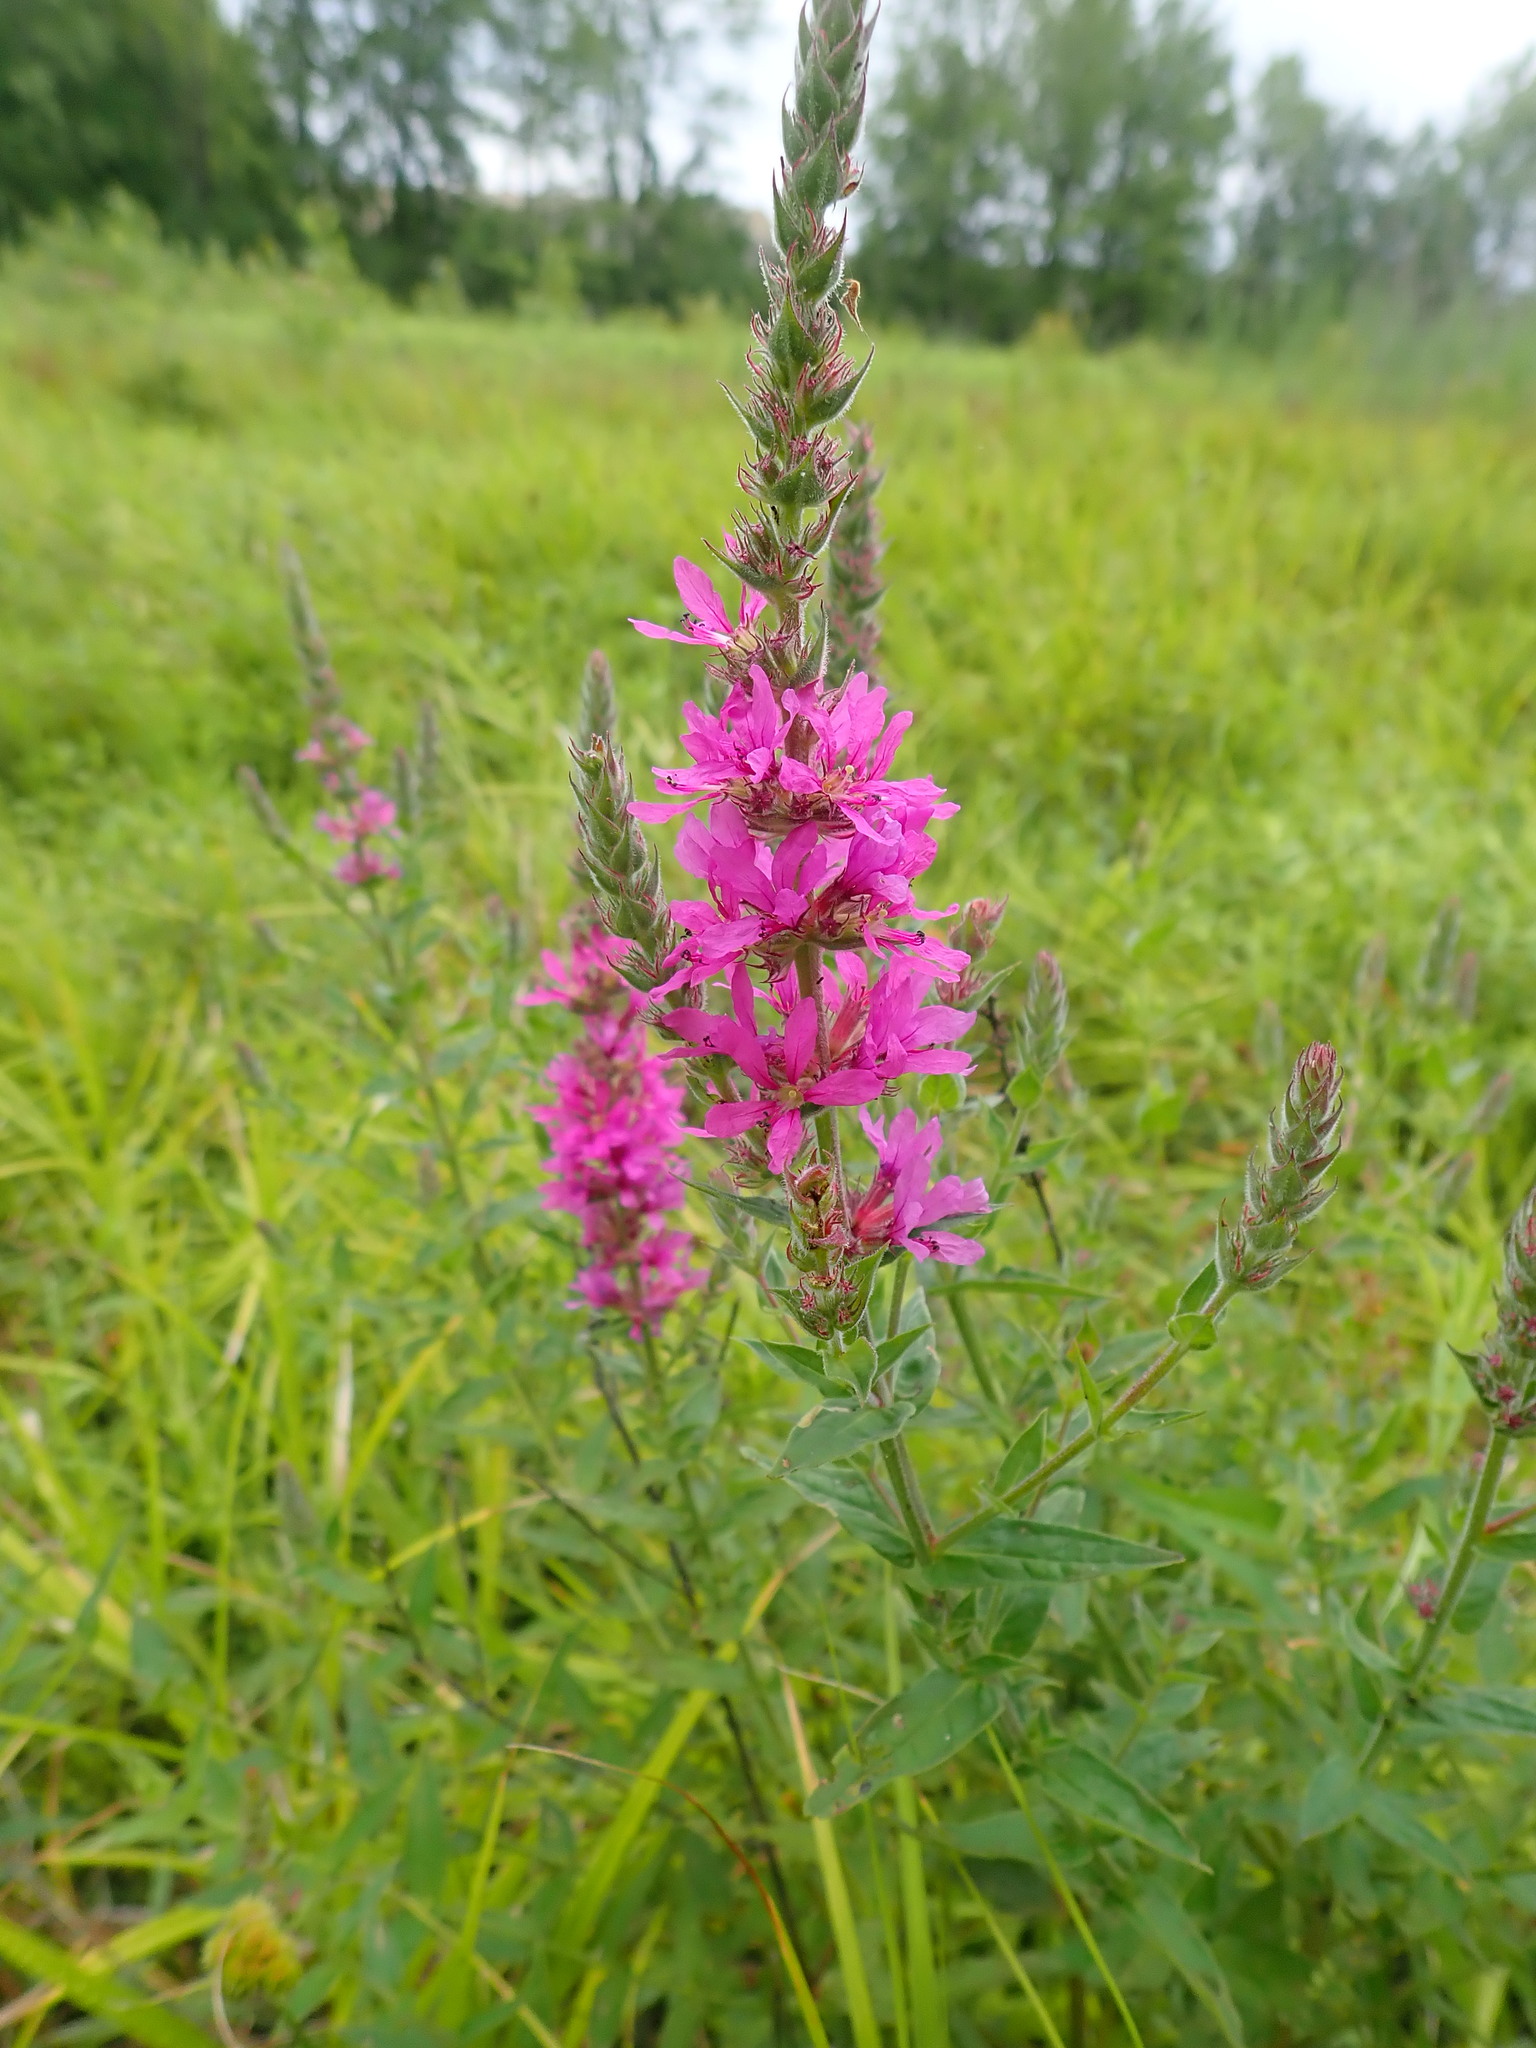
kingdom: Plantae
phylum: Tracheophyta
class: Magnoliopsida
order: Myrtales
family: Lythraceae
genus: Lythrum
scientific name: Lythrum salicaria
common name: Purple loosestrife
